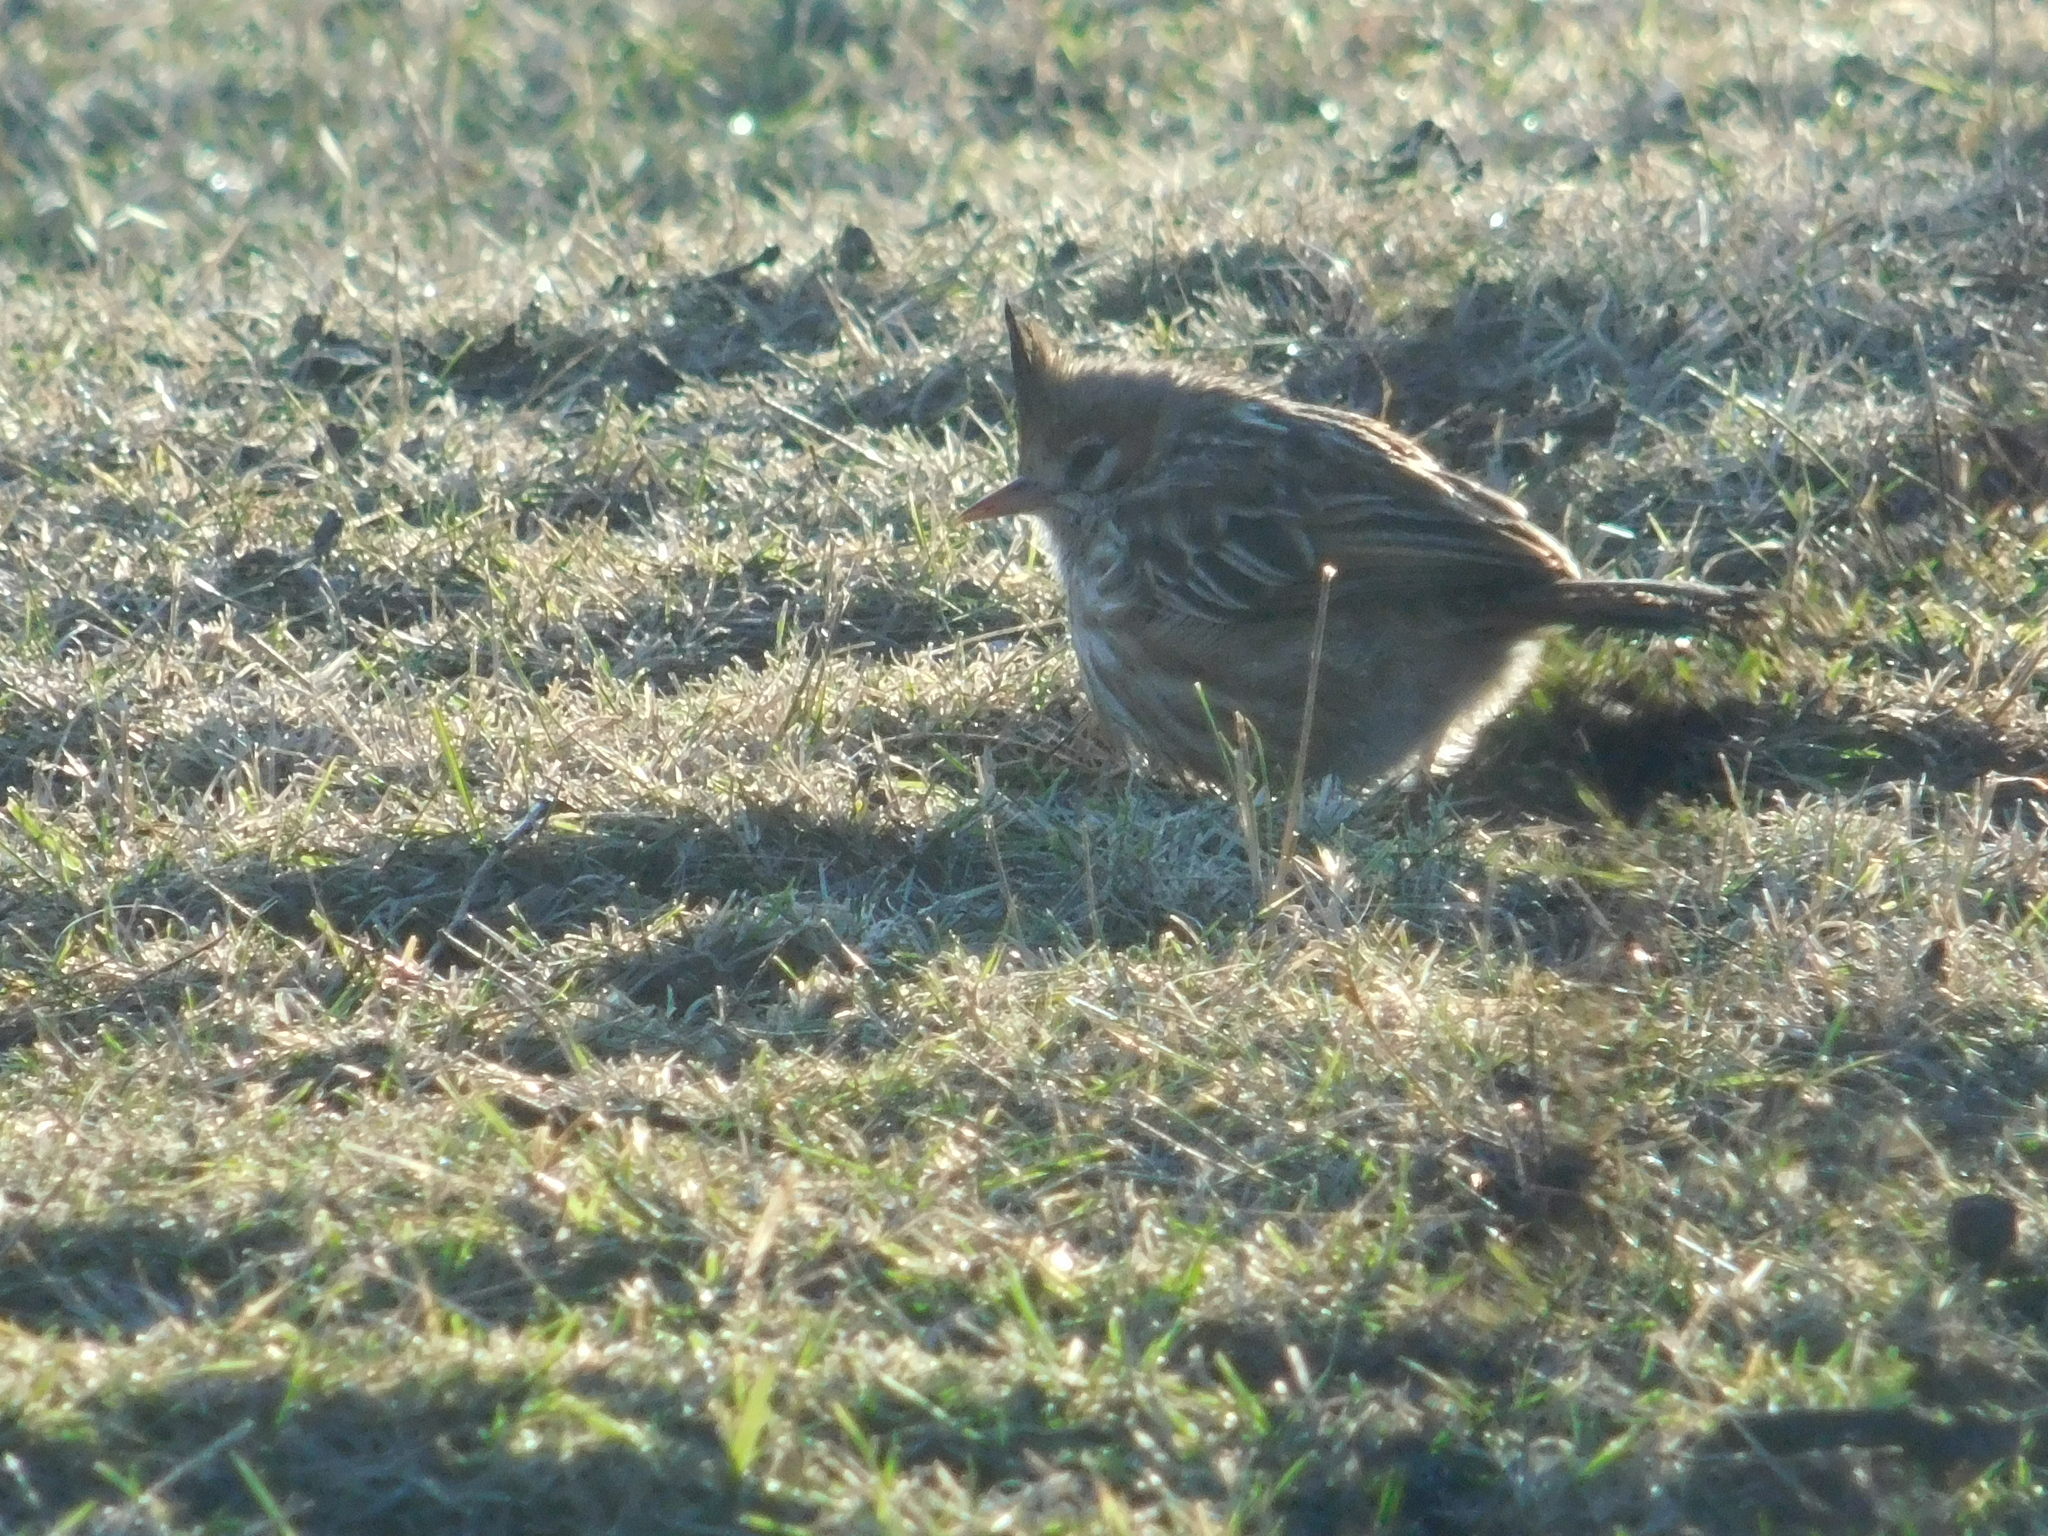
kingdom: Animalia
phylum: Chordata
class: Aves
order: Passeriformes
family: Furnariidae
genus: Coryphistera
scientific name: Coryphistera alaudina
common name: Lark-like brushrunner
